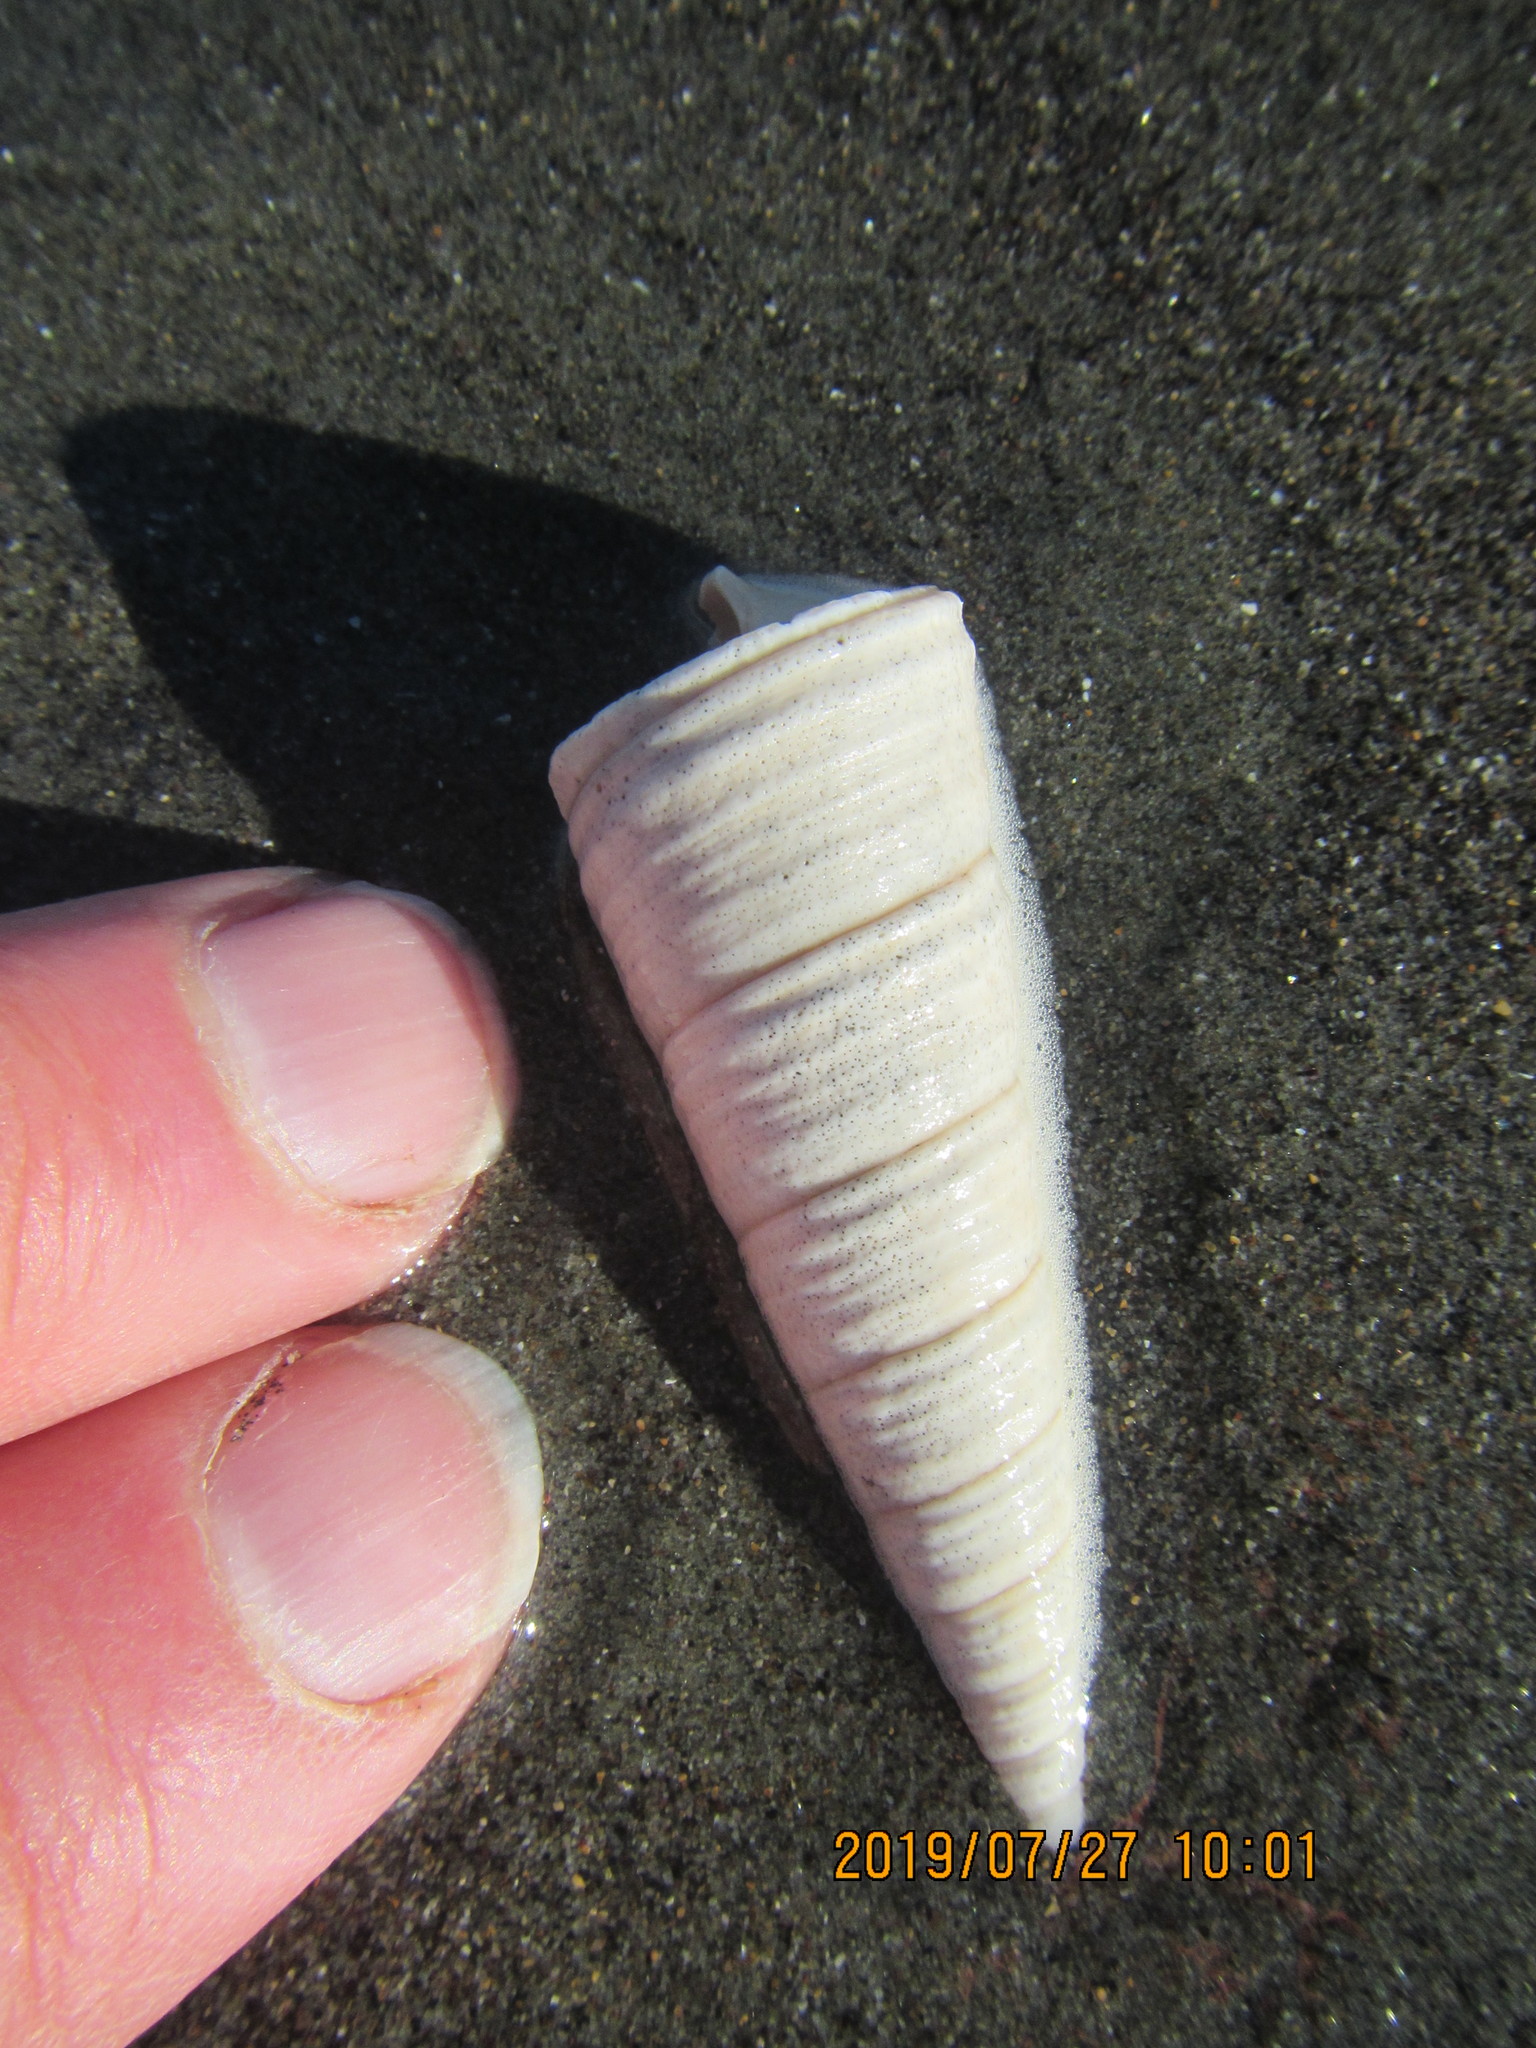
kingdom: Animalia
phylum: Mollusca
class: Gastropoda
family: Turritellidae
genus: Maoricolpus
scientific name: Maoricolpus roseus
